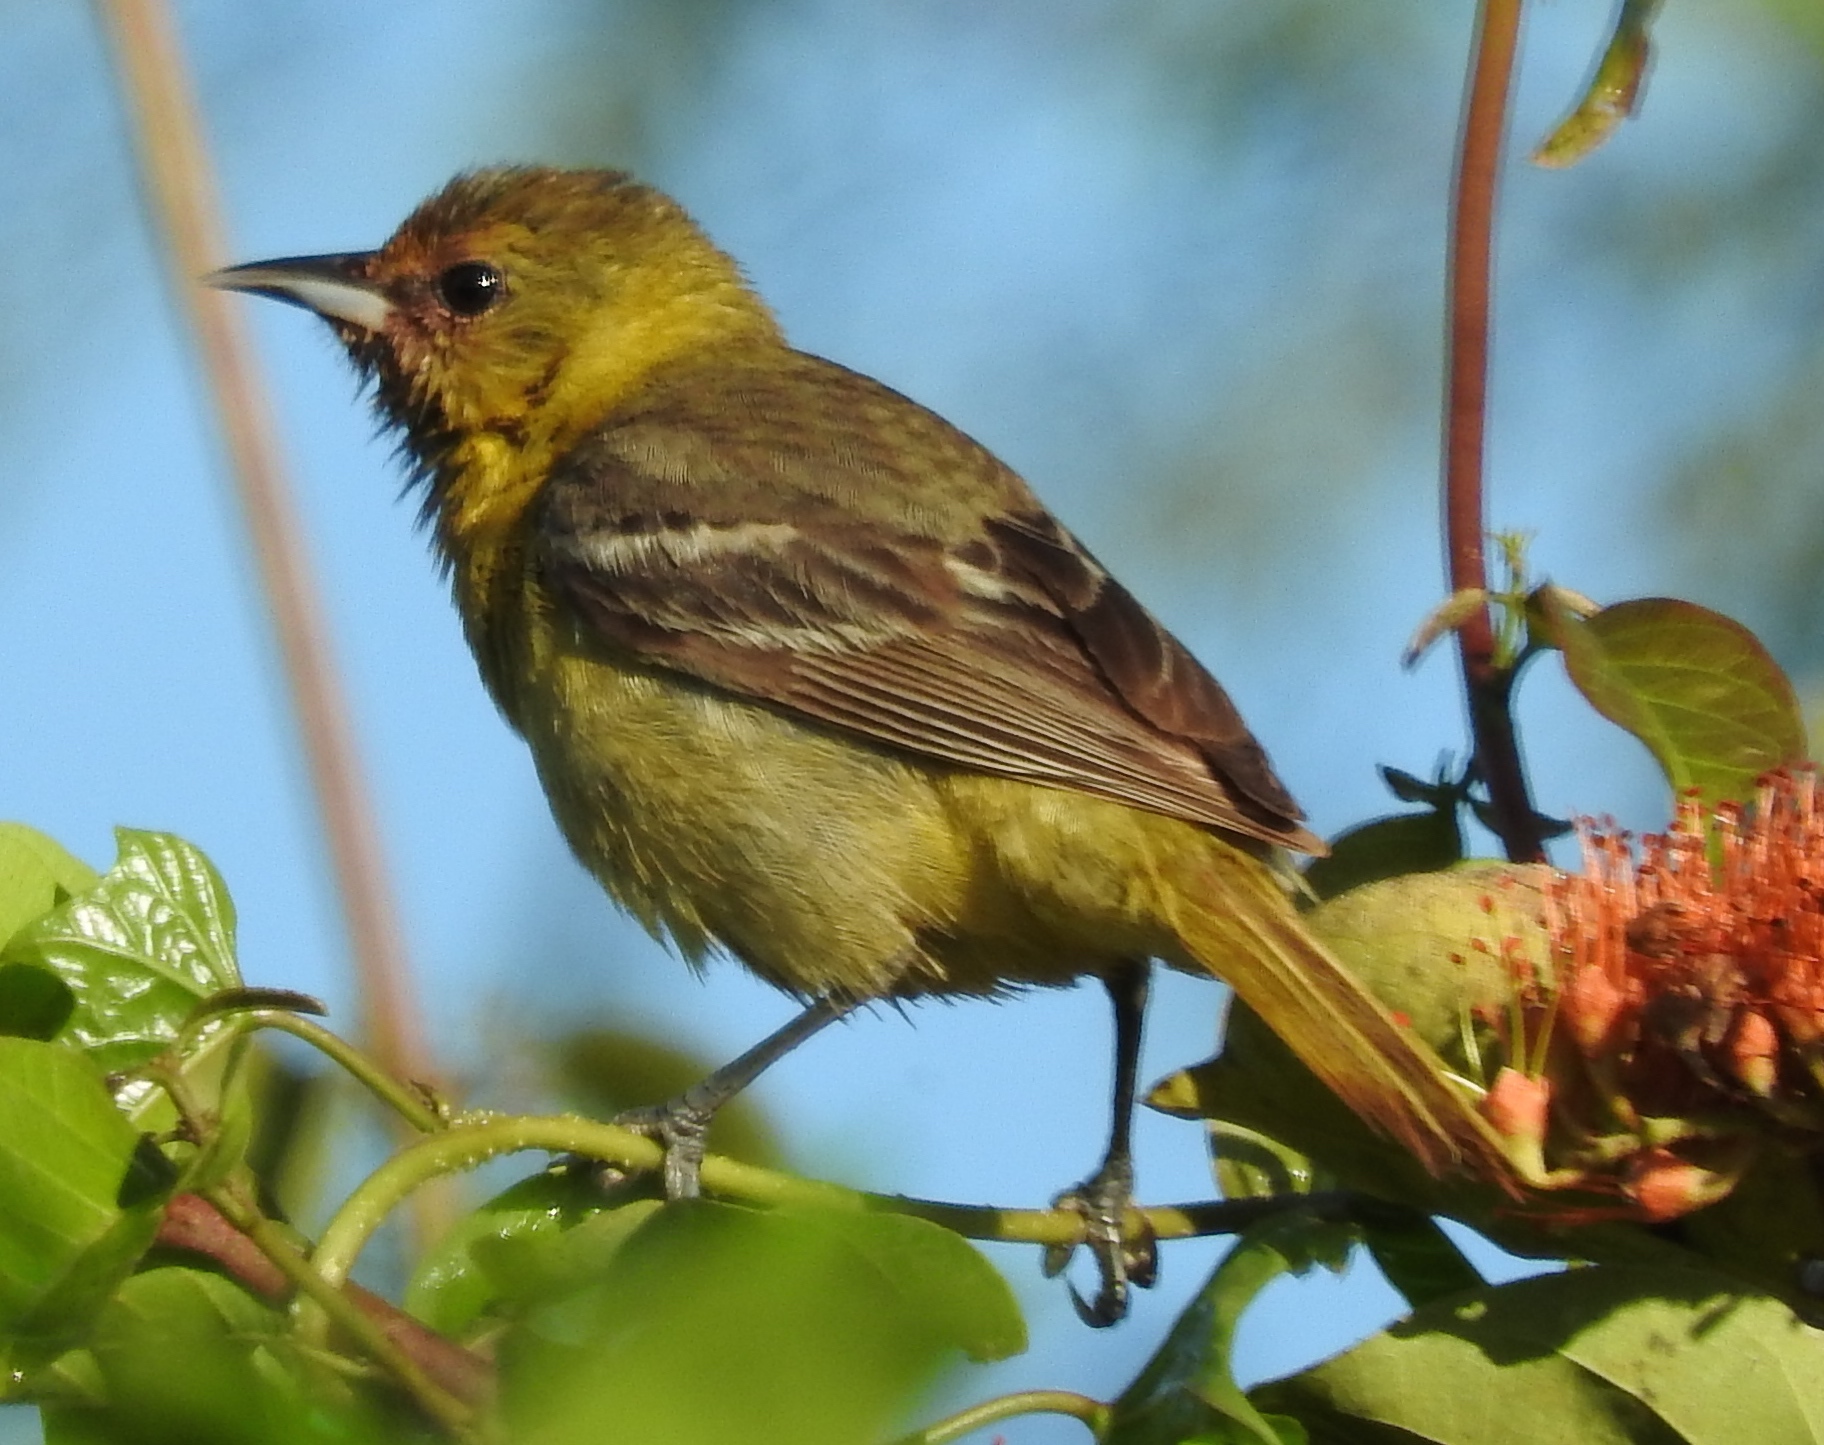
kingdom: Animalia
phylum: Chordata
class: Aves
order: Passeriformes
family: Icteridae
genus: Icterus
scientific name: Icterus spurius
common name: Orchard oriole
